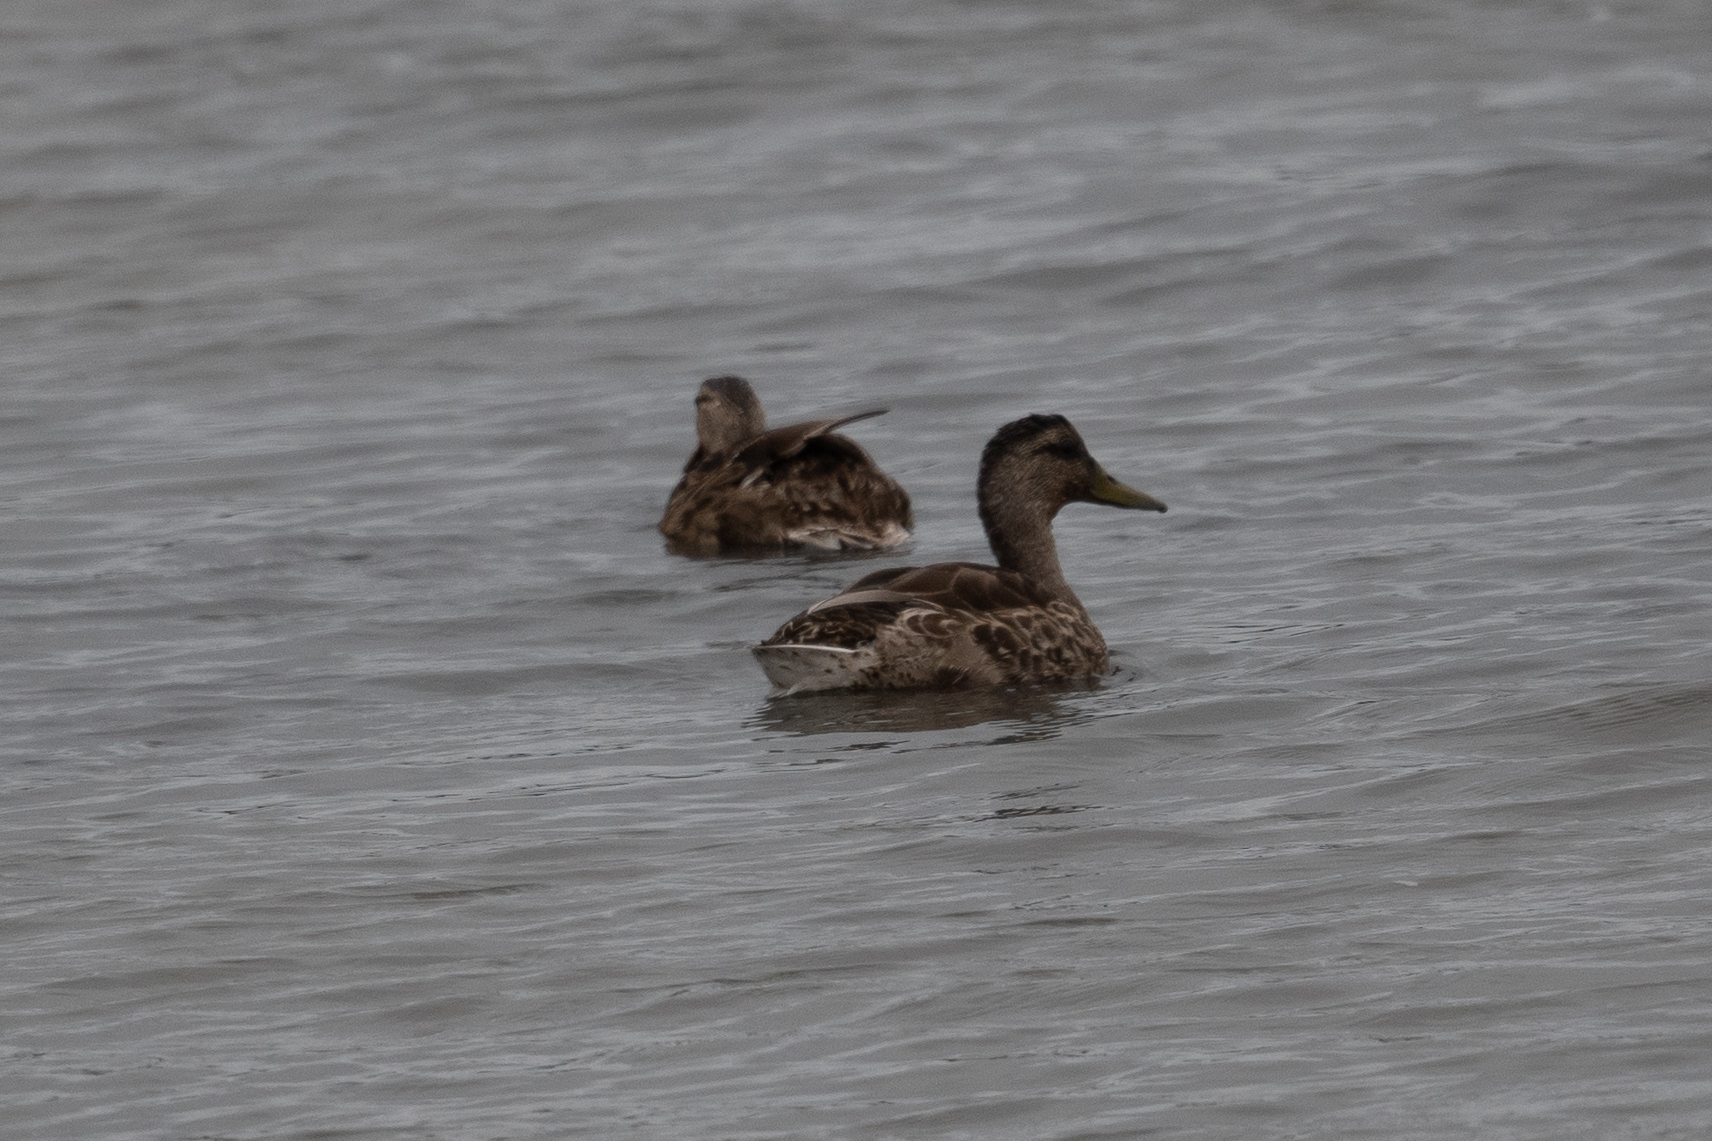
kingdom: Animalia
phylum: Chordata
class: Aves
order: Anseriformes
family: Anatidae
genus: Anas
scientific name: Anas platyrhynchos
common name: Mallard
